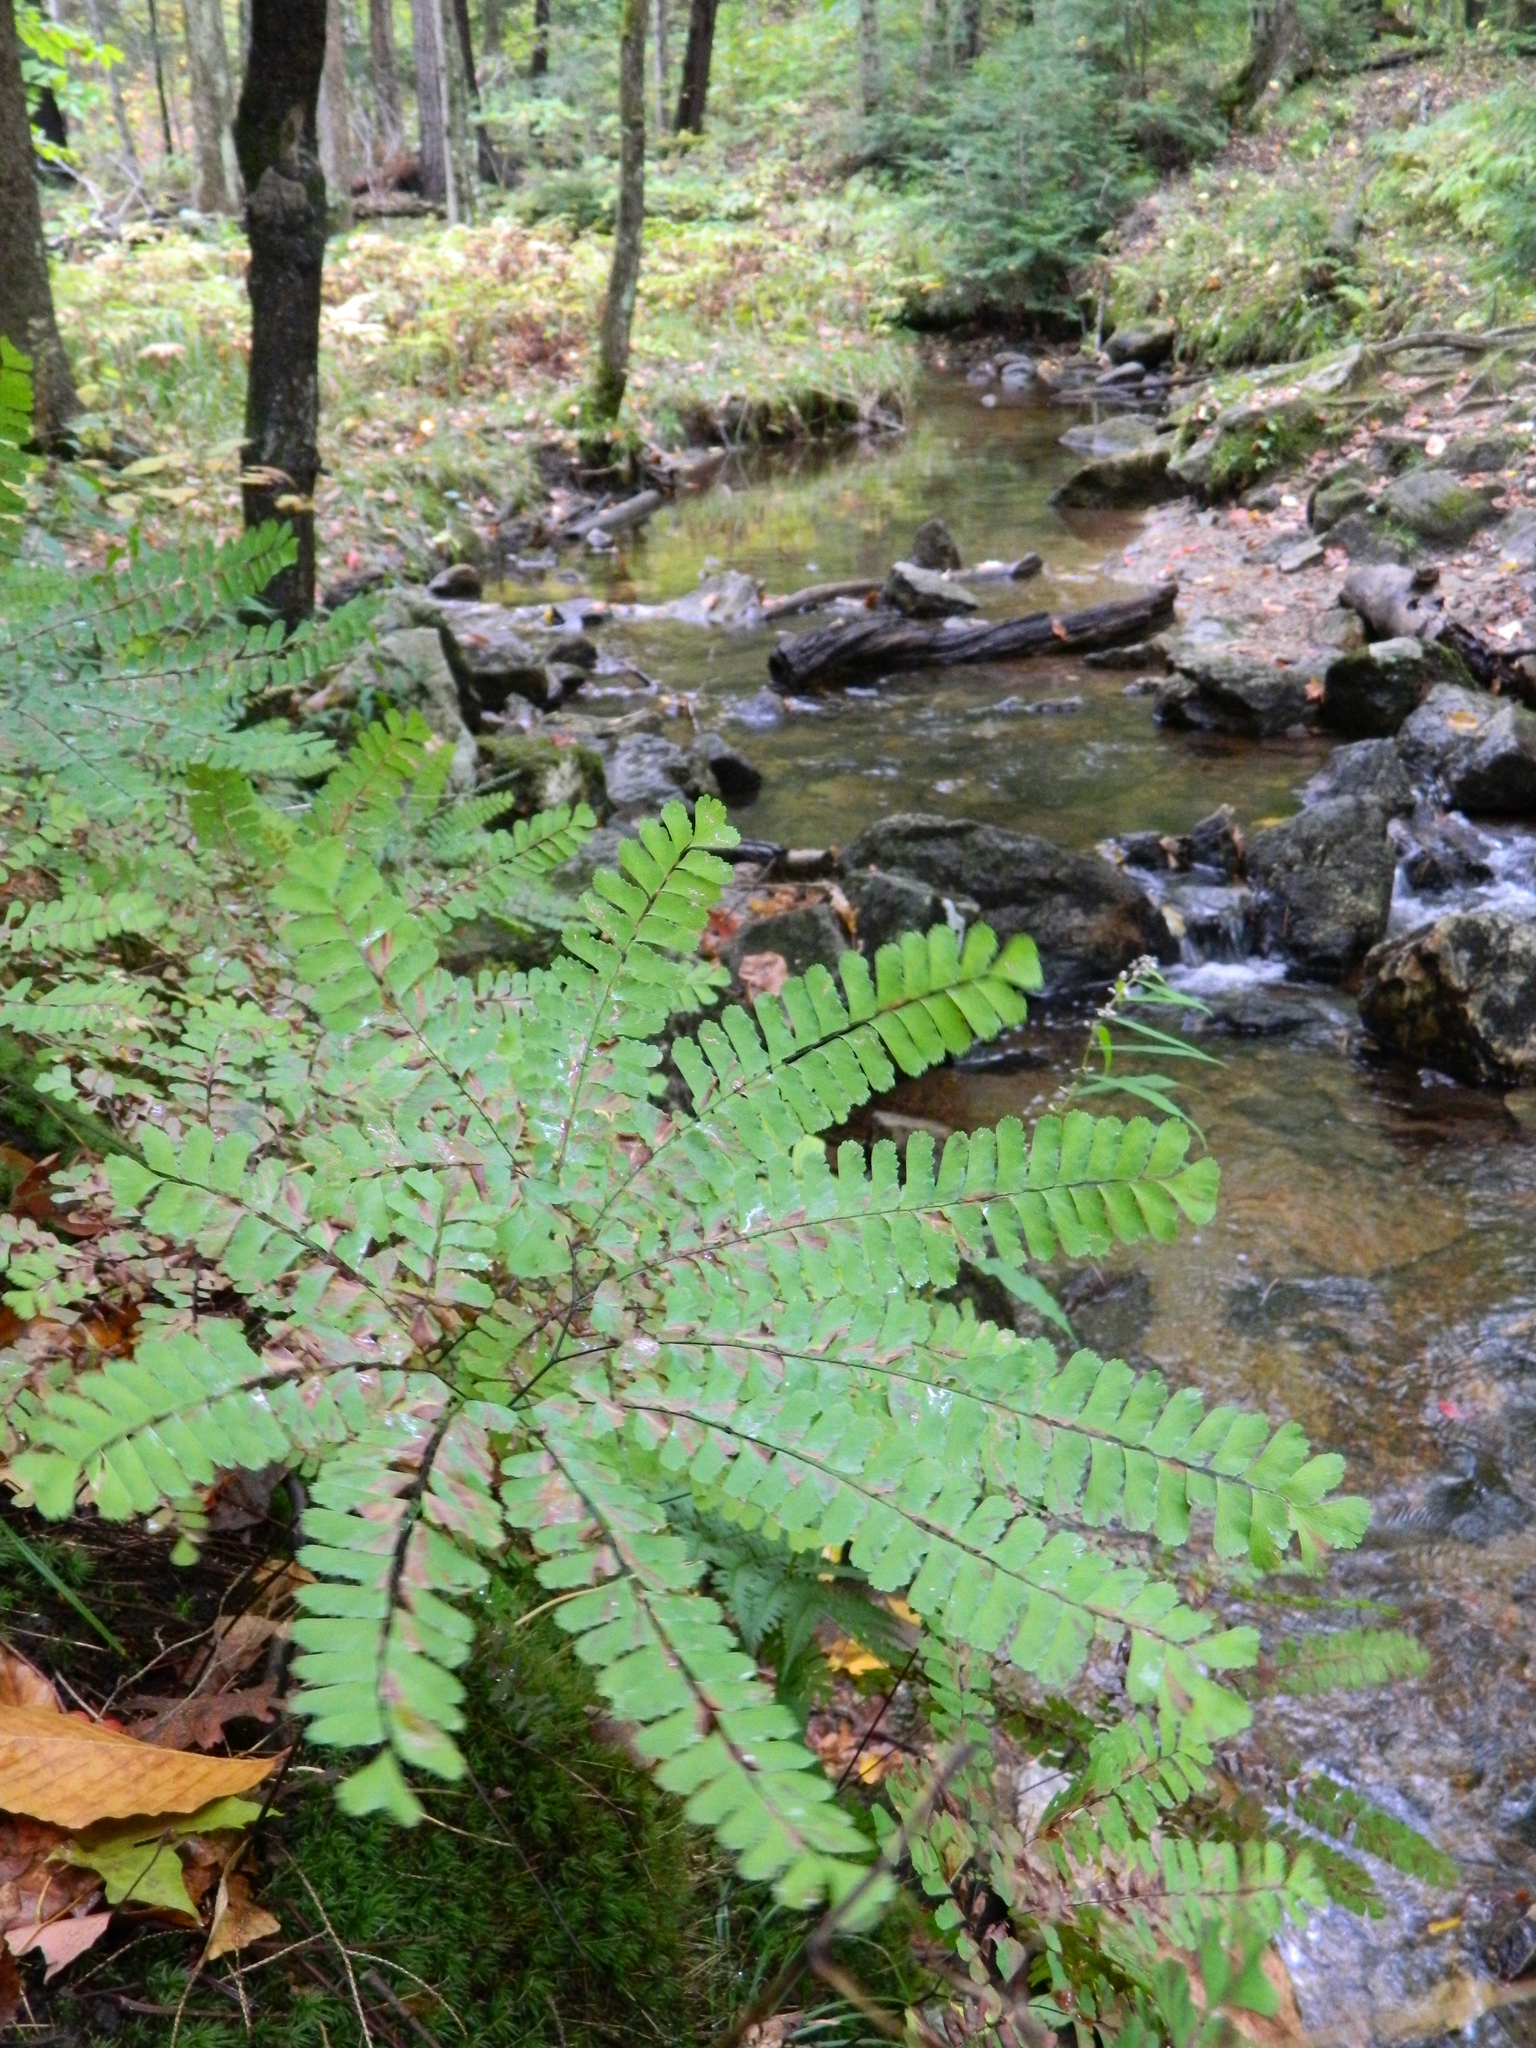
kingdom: Plantae
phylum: Tracheophyta
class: Polypodiopsida
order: Polypodiales
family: Pteridaceae
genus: Adiantum
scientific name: Adiantum pedatum
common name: Five-finger fern
